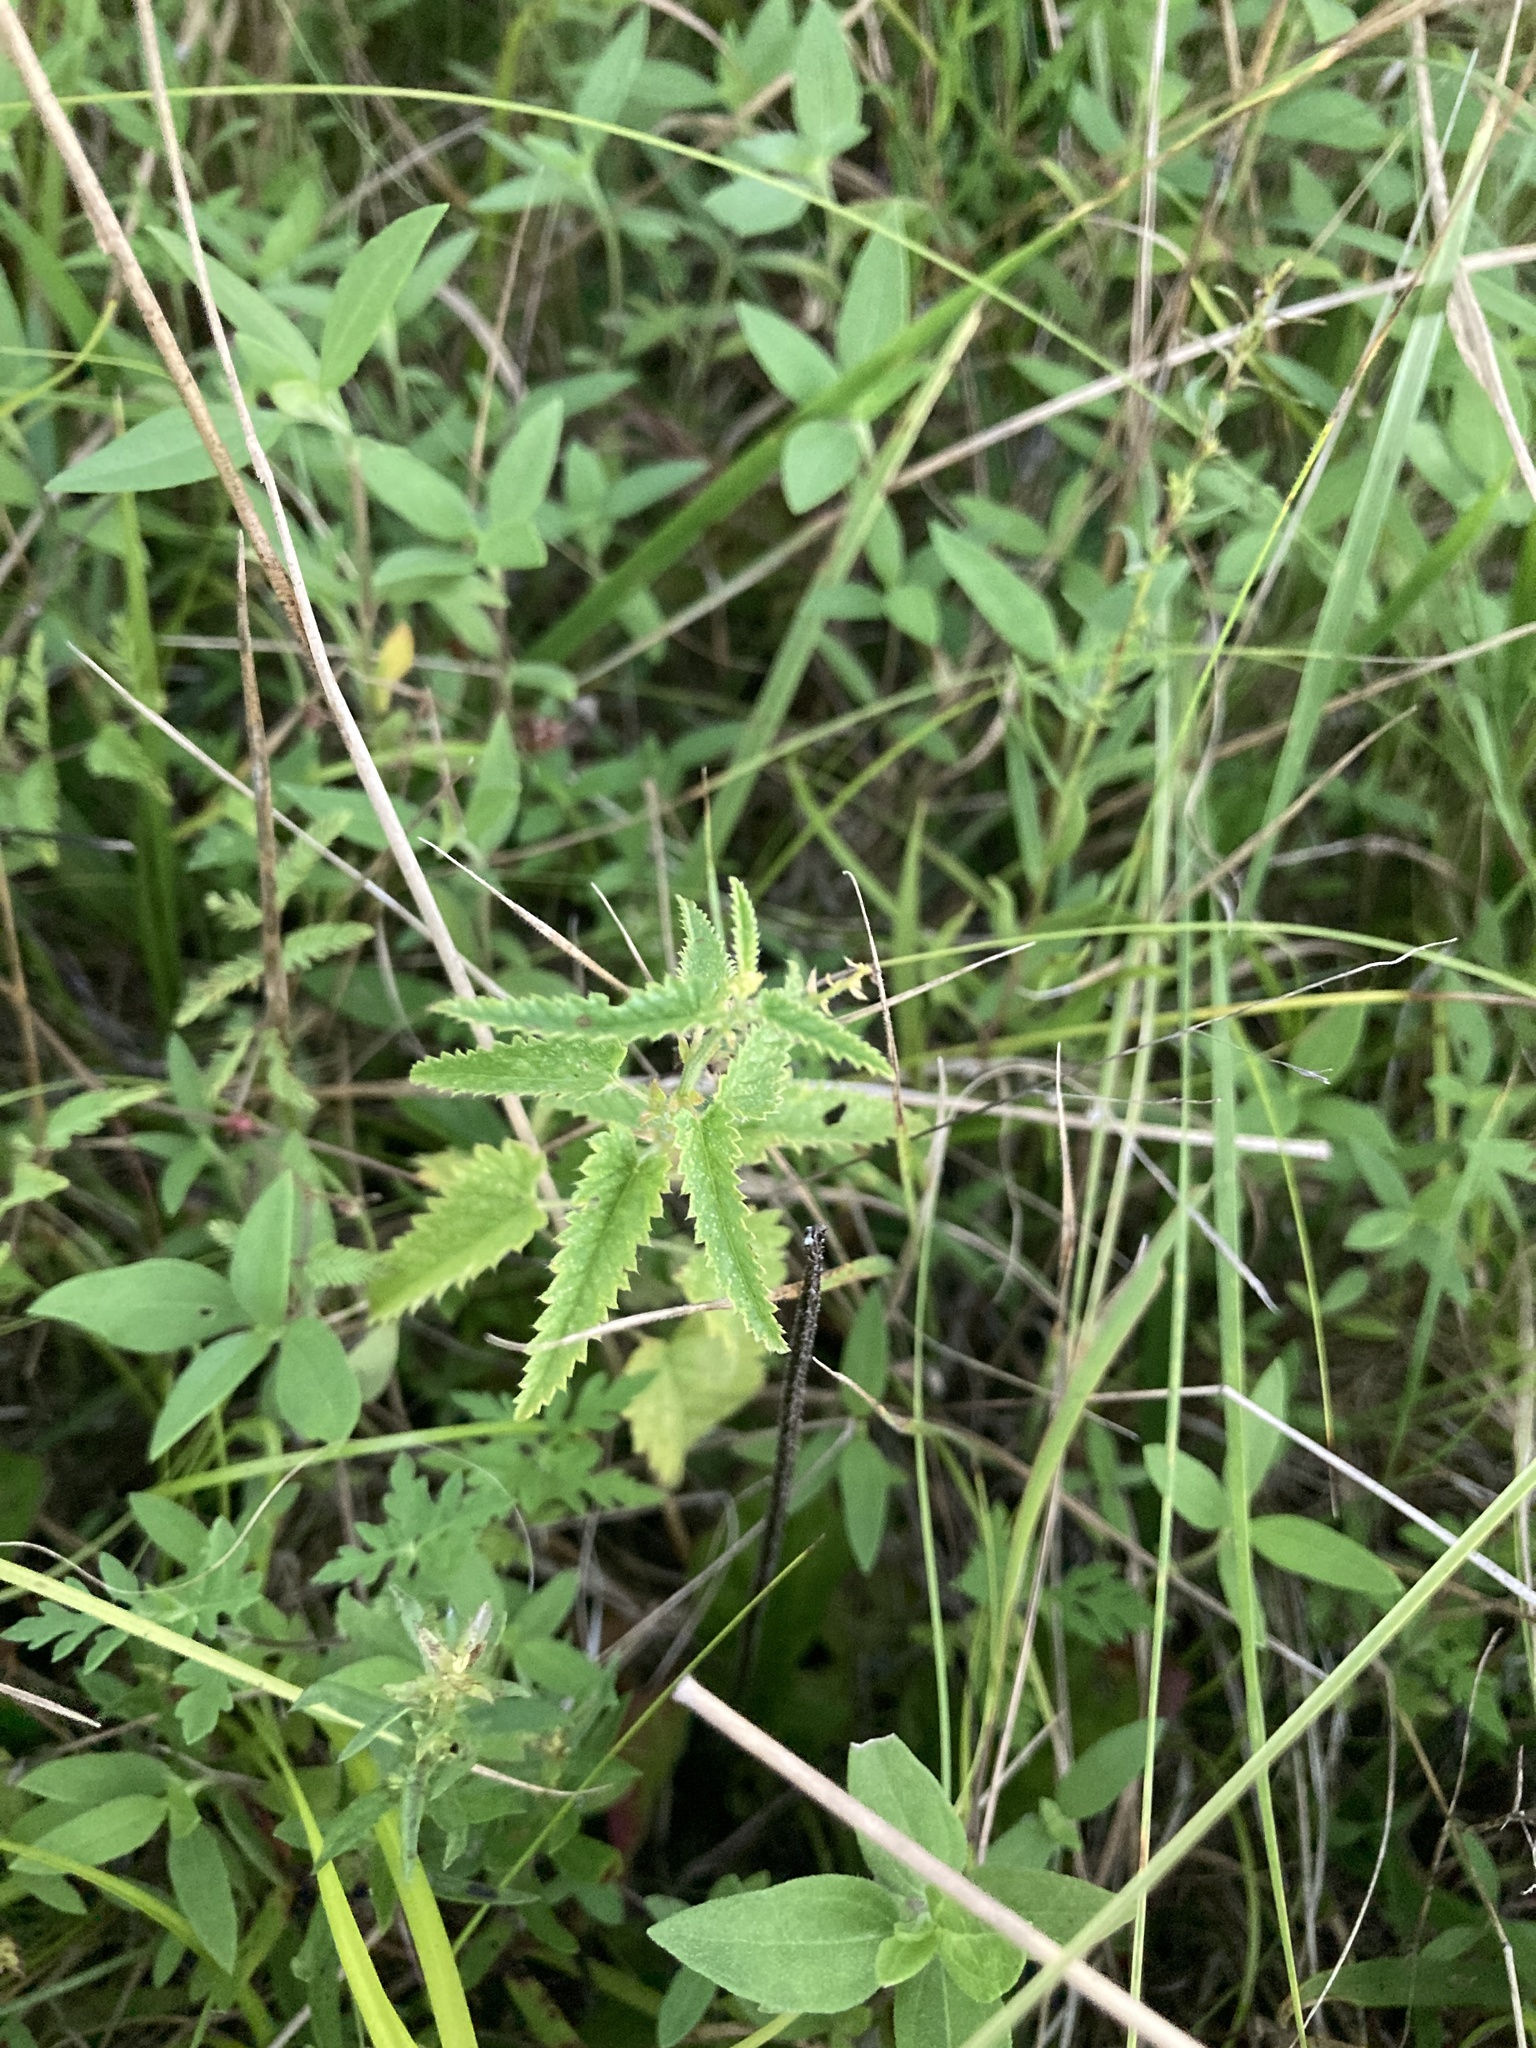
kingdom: Plantae
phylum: Tracheophyta
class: Magnoliopsida
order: Malpighiales
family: Euphorbiaceae
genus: Tragia
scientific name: Tragia urticifolia
